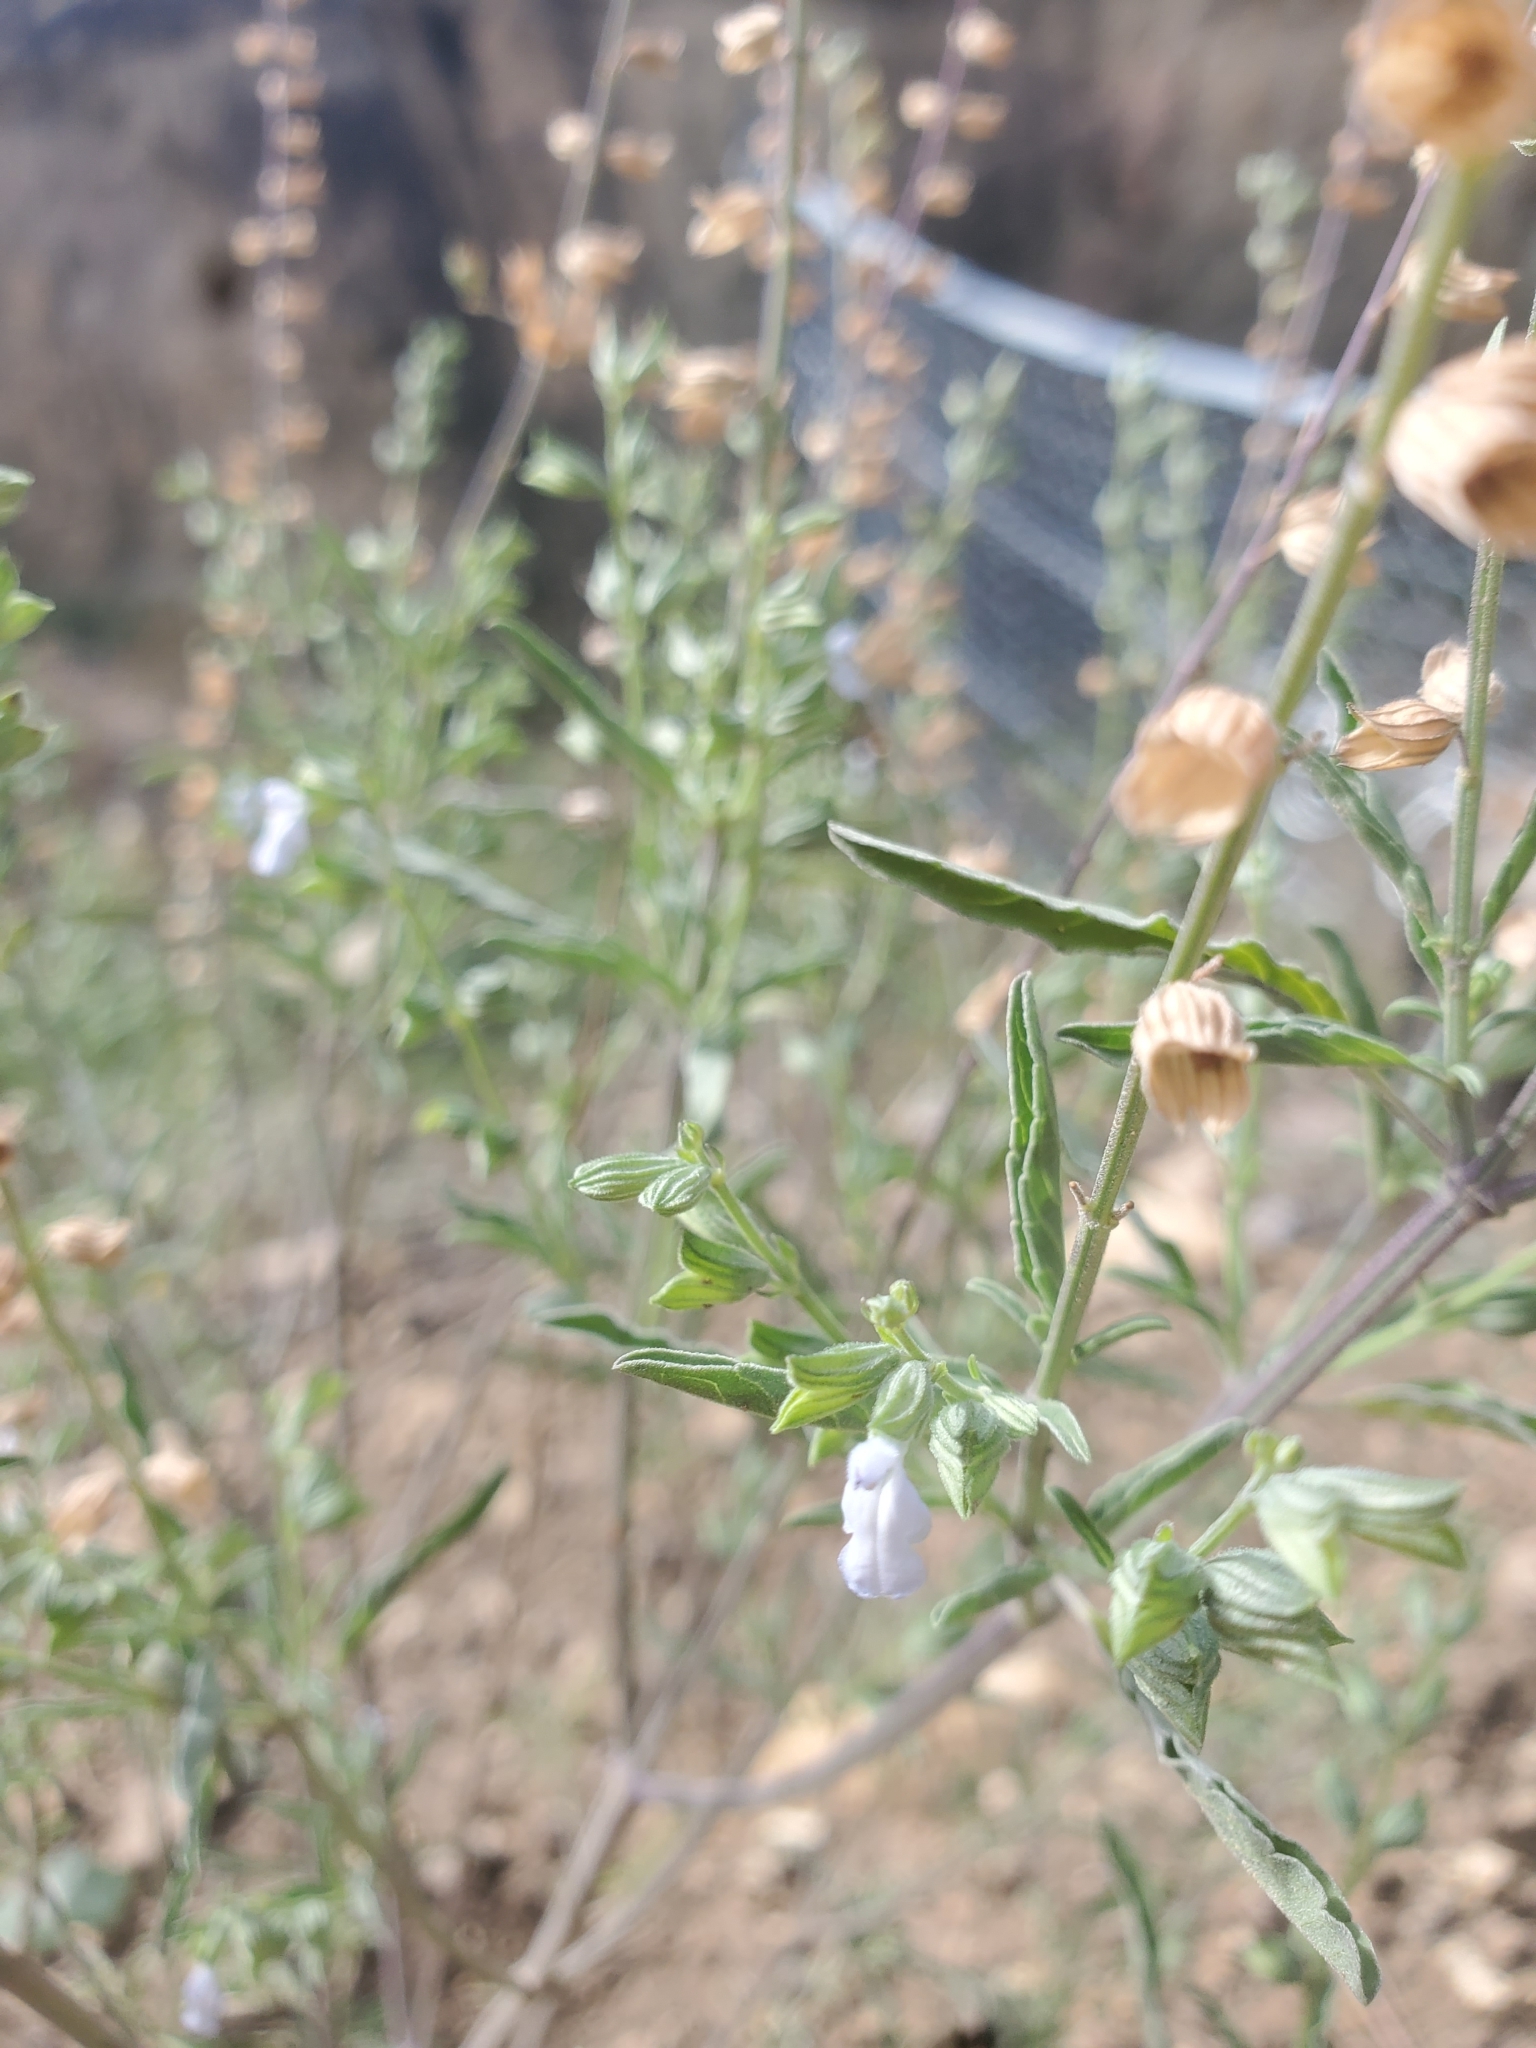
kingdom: Plantae
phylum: Tracheophyta
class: Magnoliopsida
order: Lamiales
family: Lamiaceae
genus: Salvia
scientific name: Salvia reflexa
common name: Mintweed
